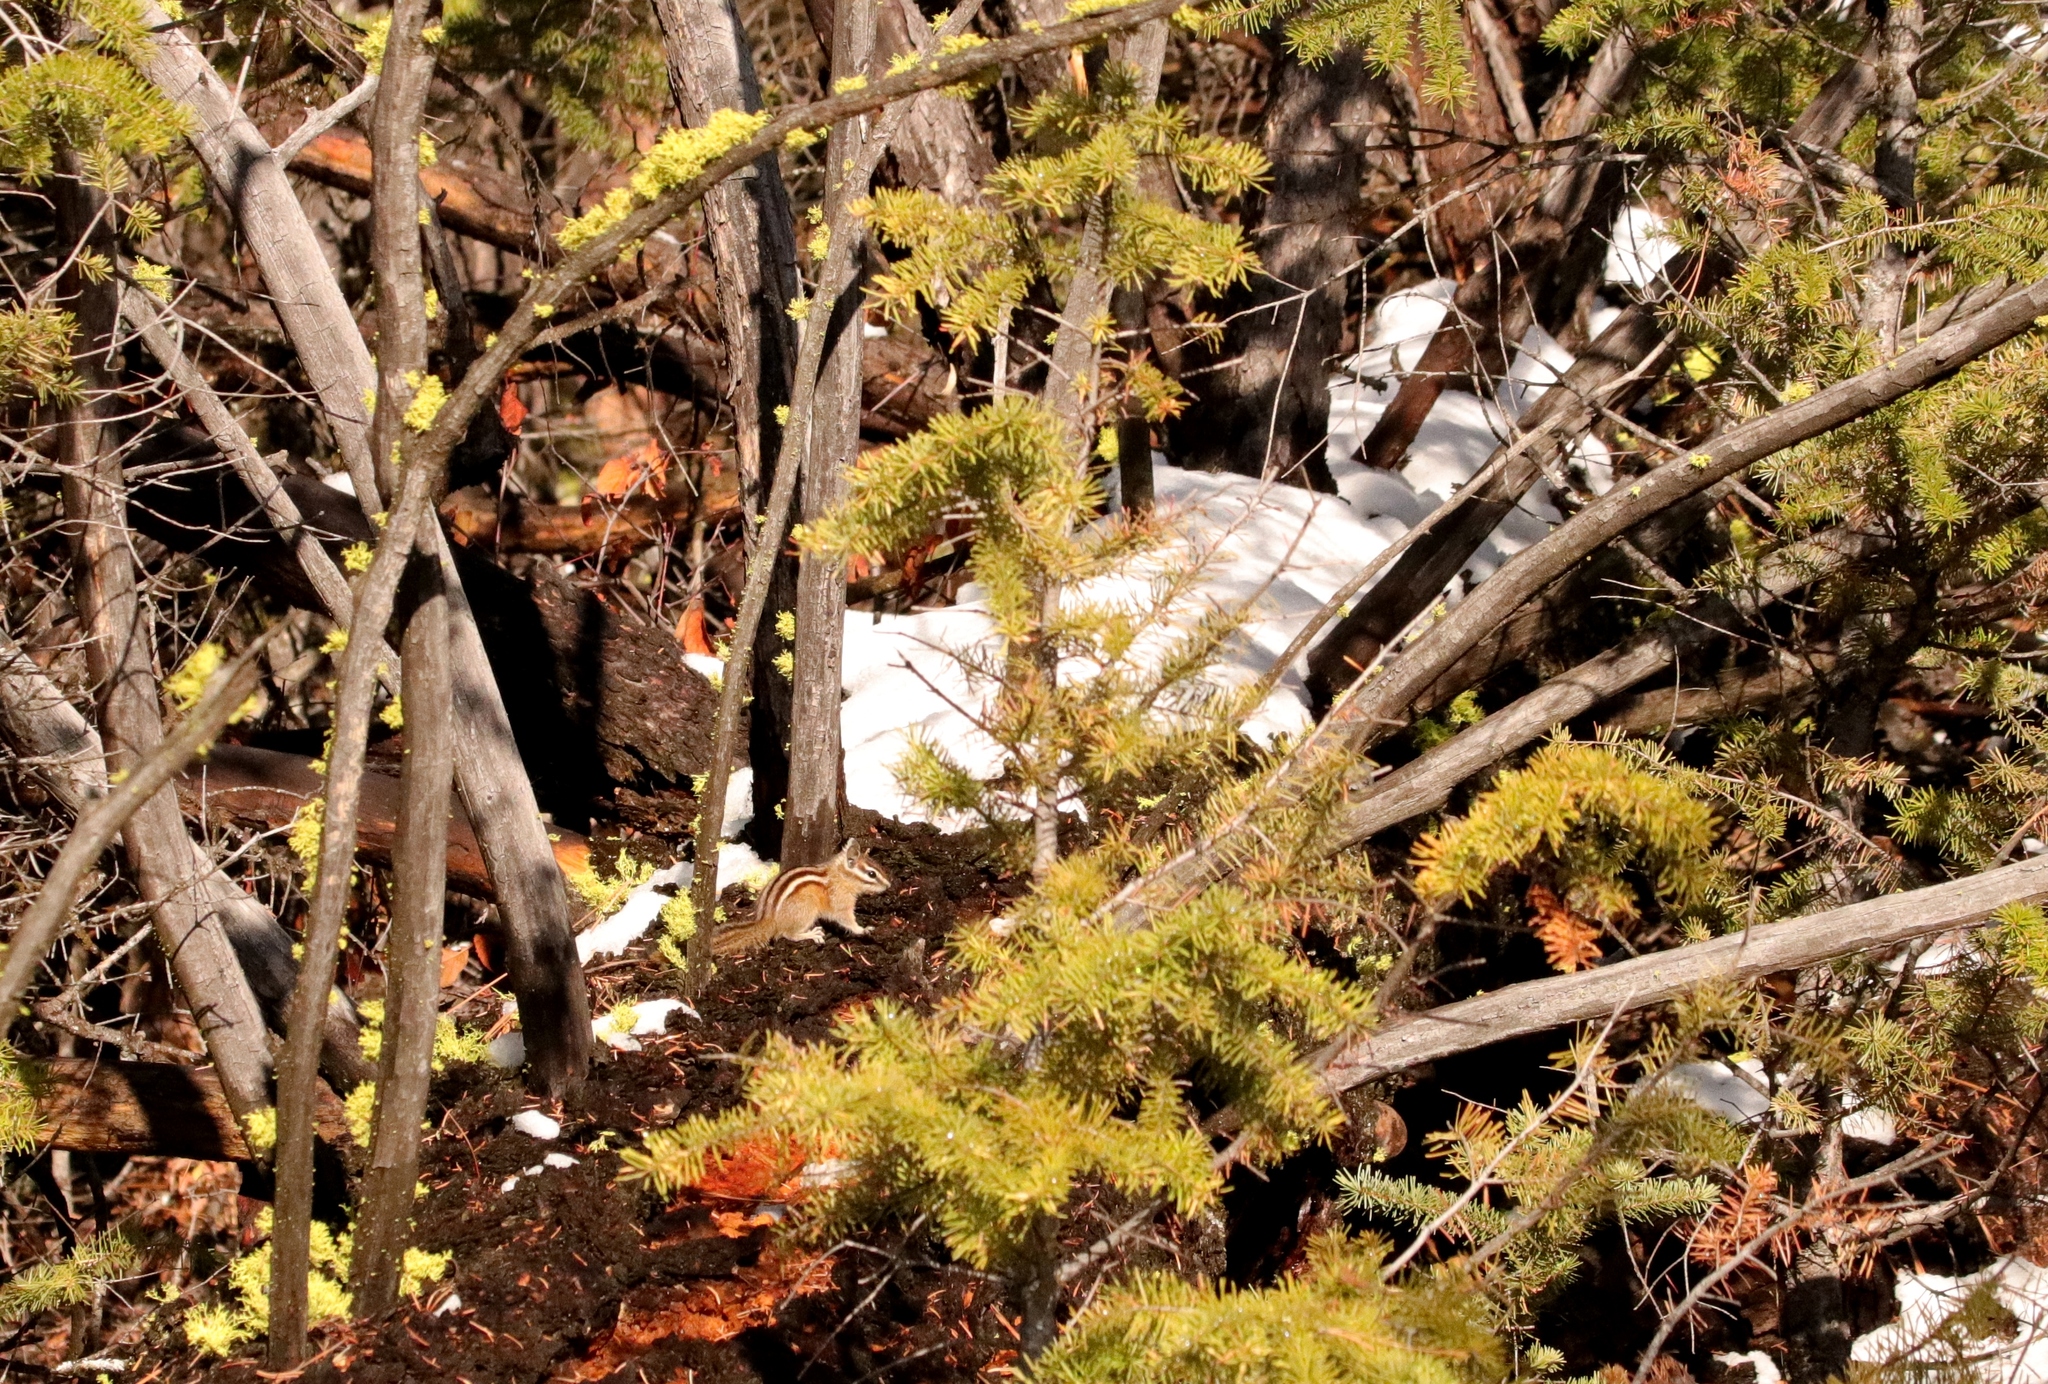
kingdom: Animalia
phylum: Chordata
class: Mammalia
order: Rodentia
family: Sciuridae
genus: Tamias
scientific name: Tamias amoenus
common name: Yellow-pine chipmunk
